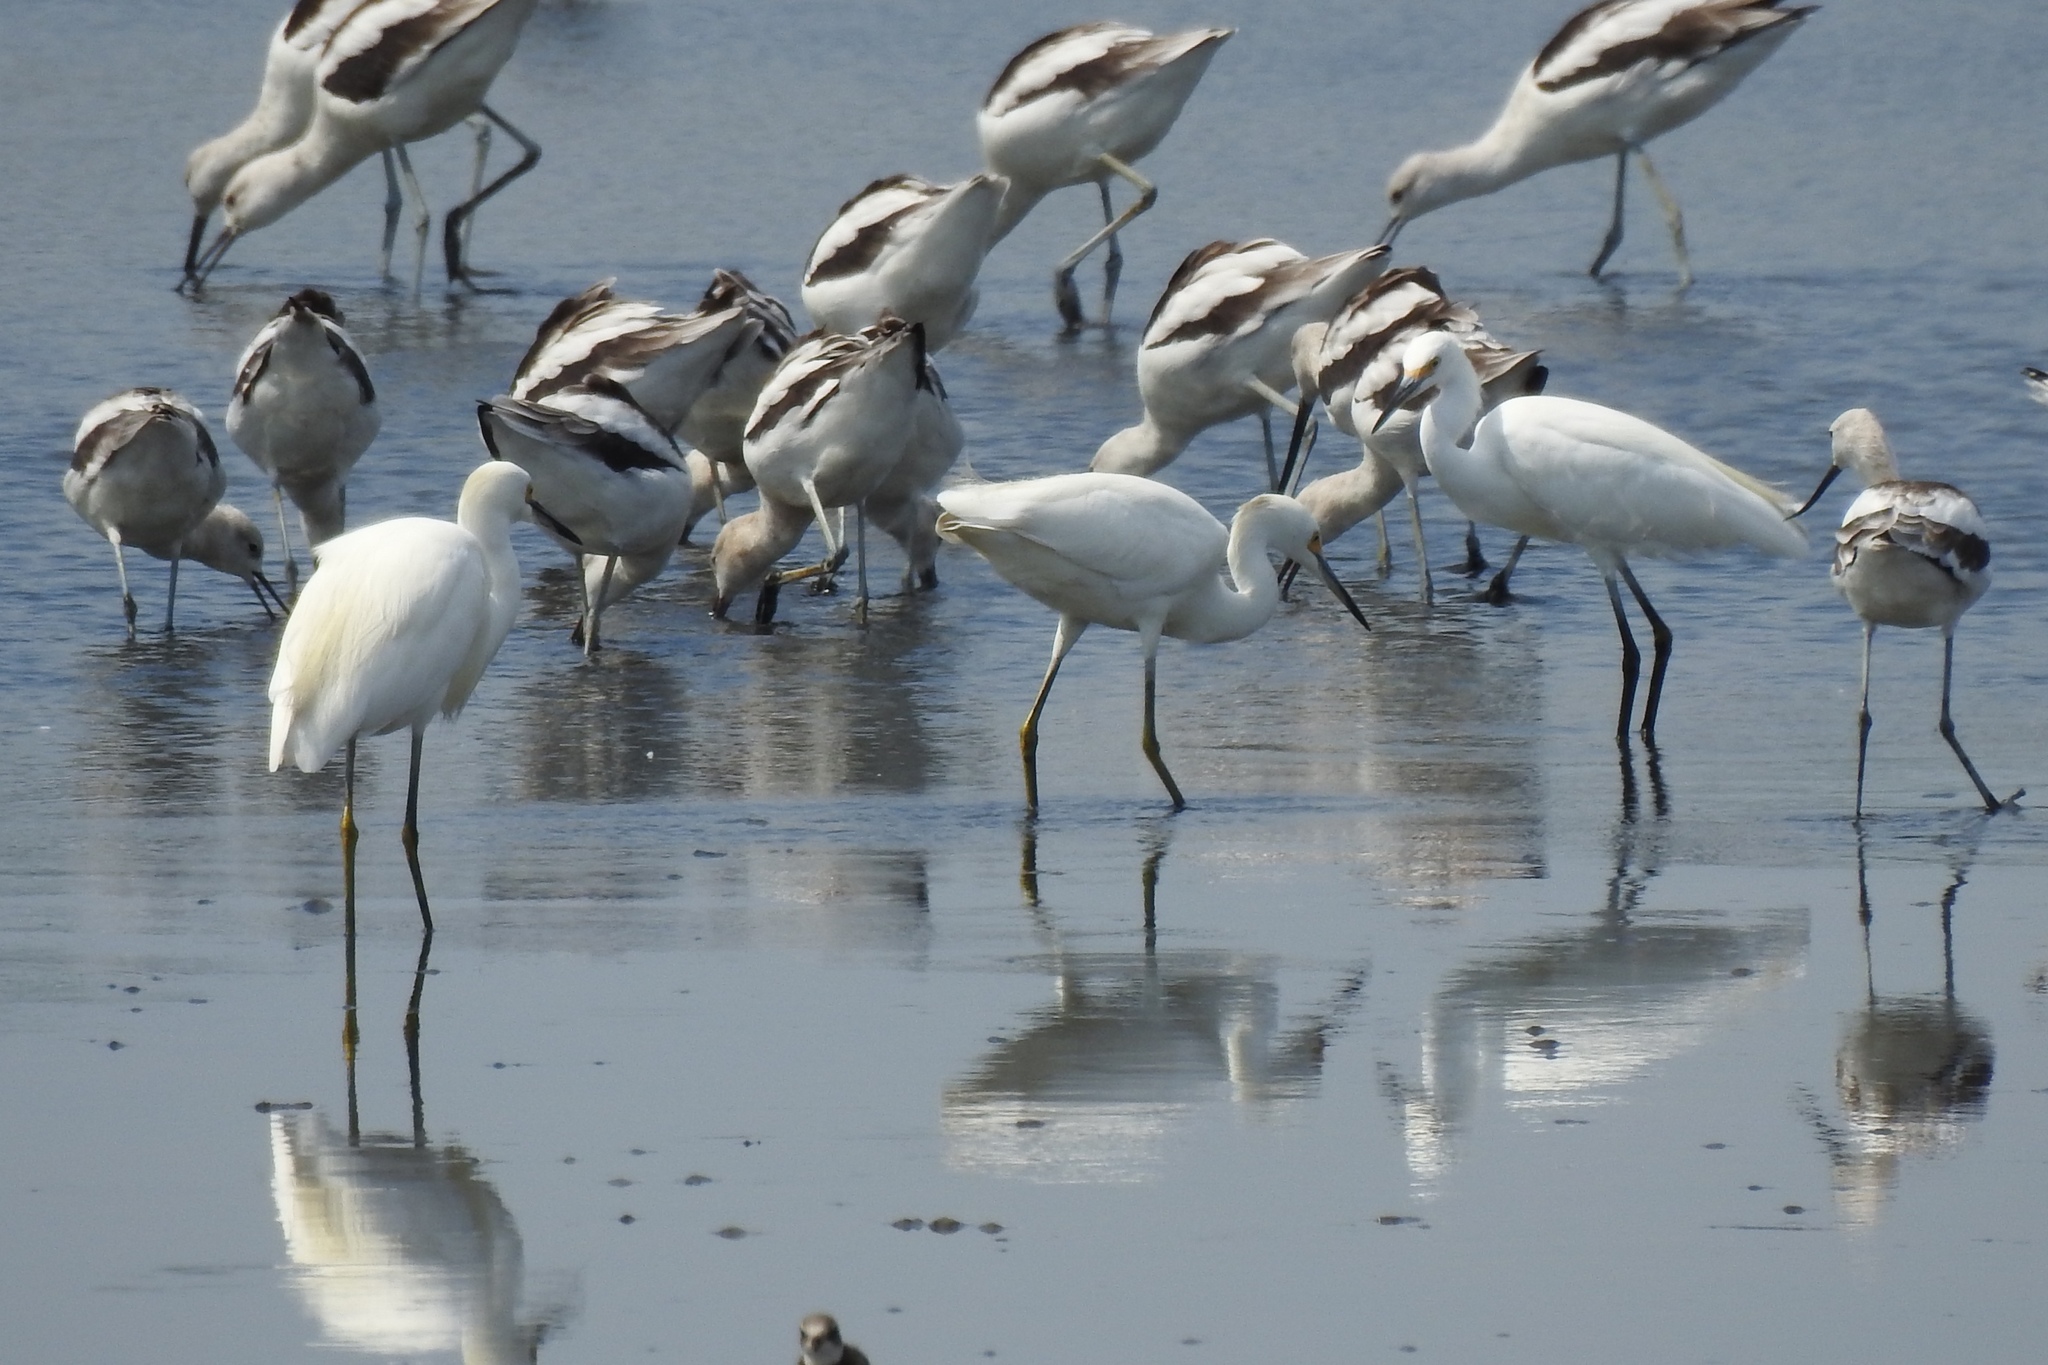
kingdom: Animalia
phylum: Chordata
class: Aves
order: Pelecaniformes
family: Ardeidae
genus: Egretta
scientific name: Egretta thula
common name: Snowy egret
